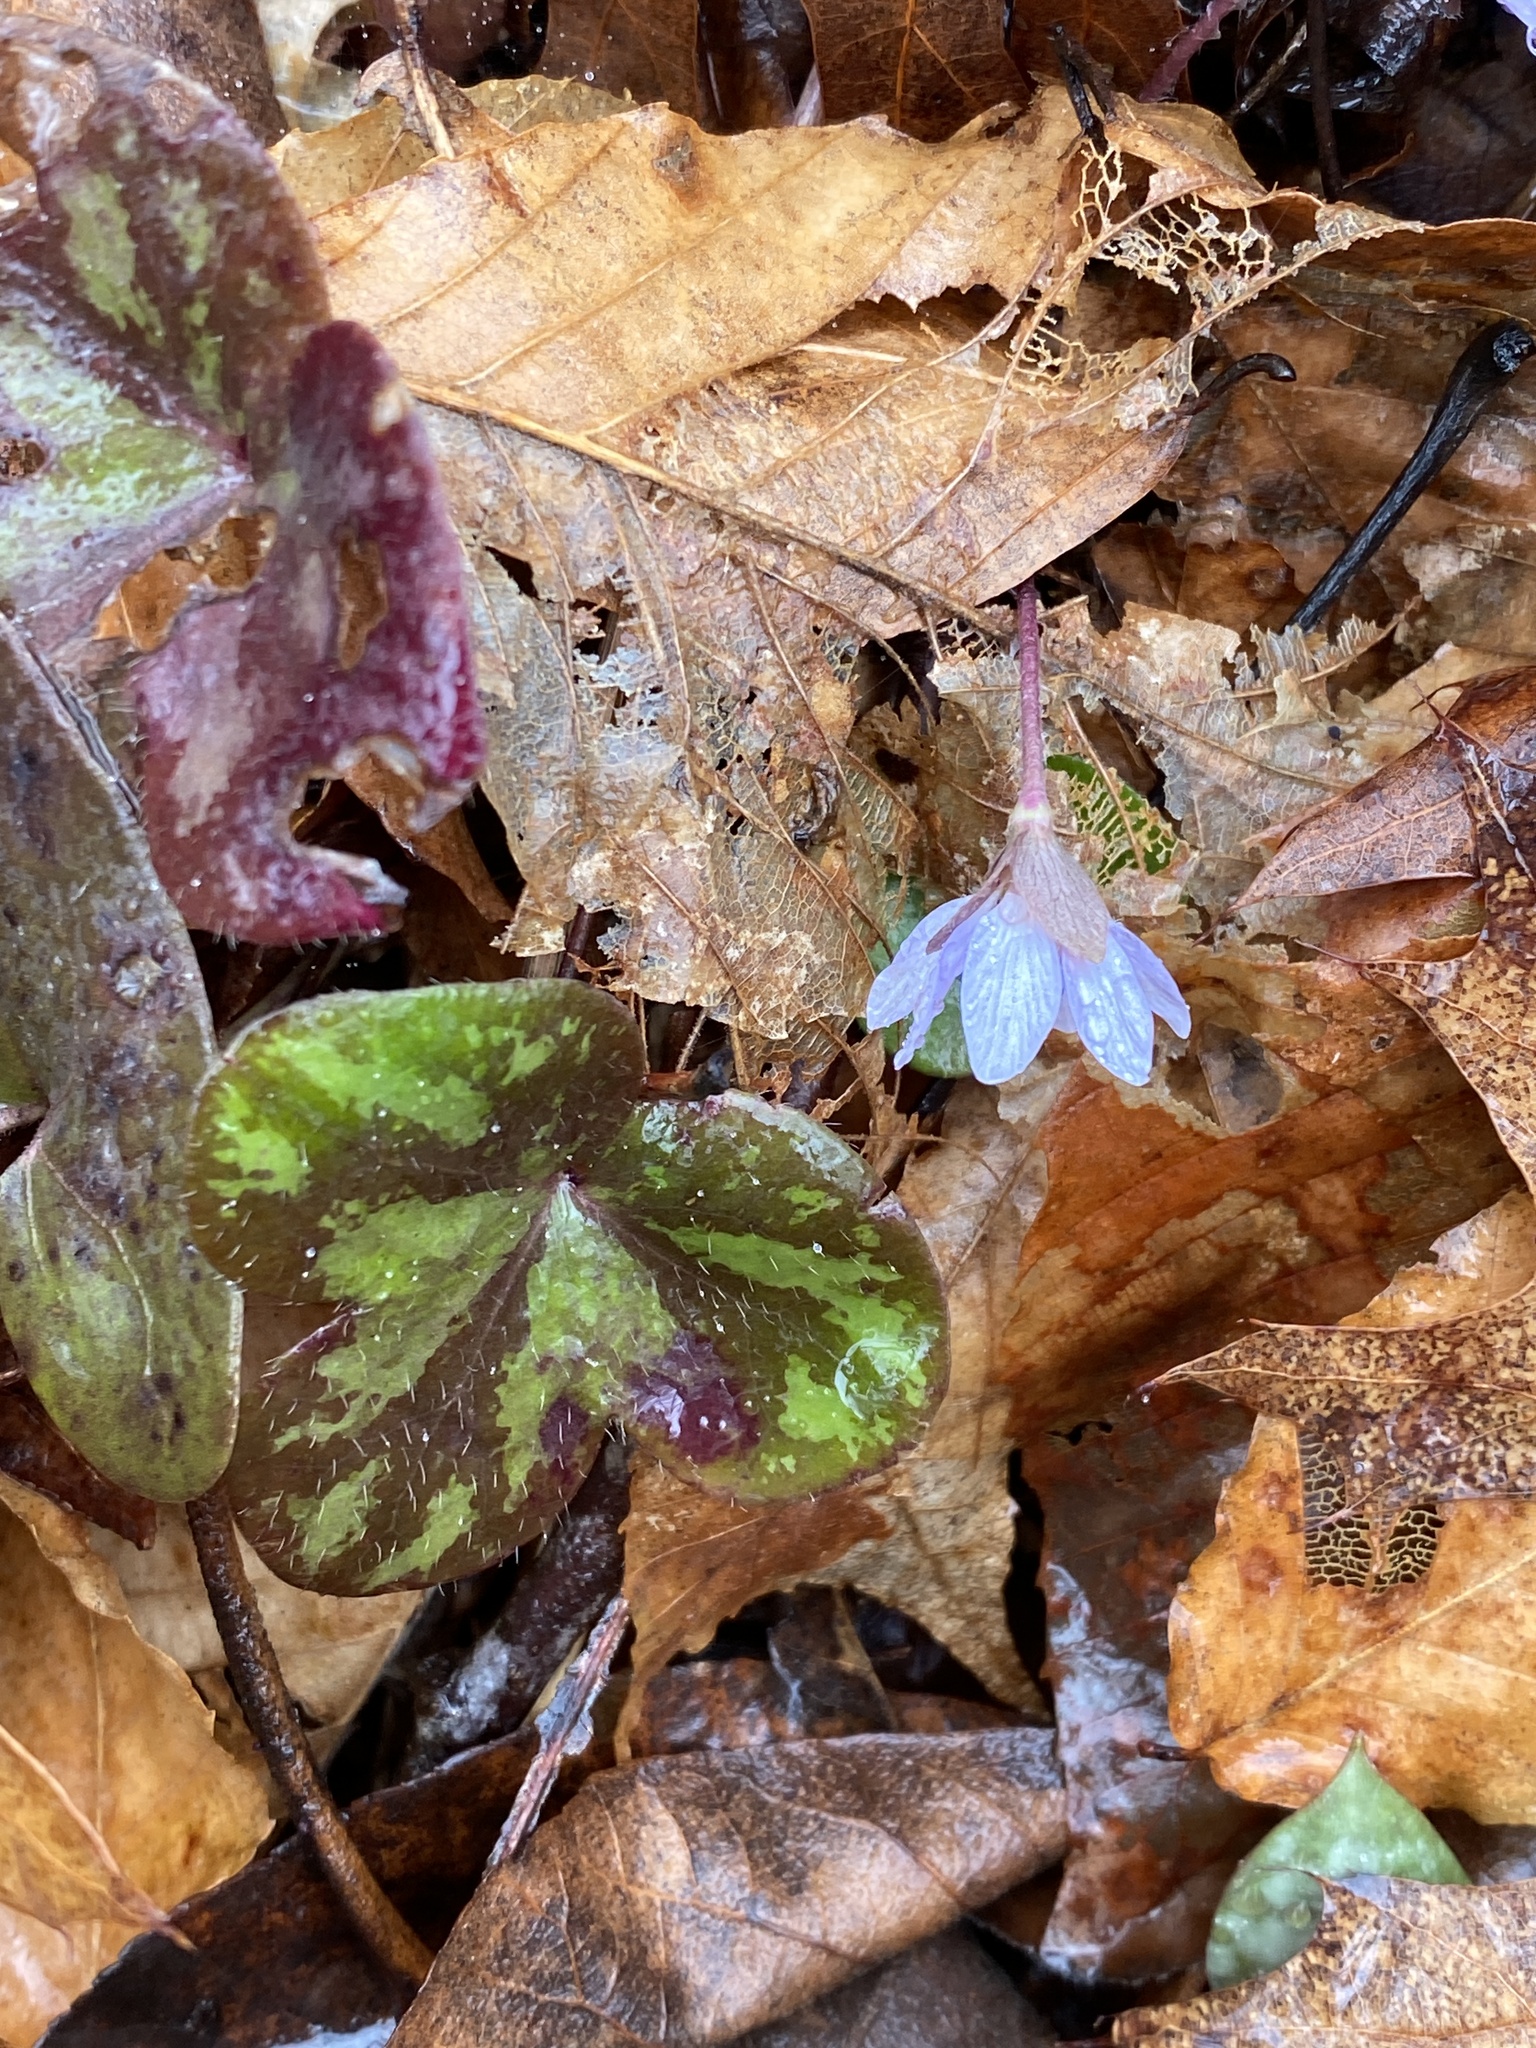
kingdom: Plantae
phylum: Tracheophyta
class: Magnoliopsida
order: Ranunculales
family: Ranunculaceae
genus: Hepatica
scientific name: Hepatica americana
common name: American hepatica
